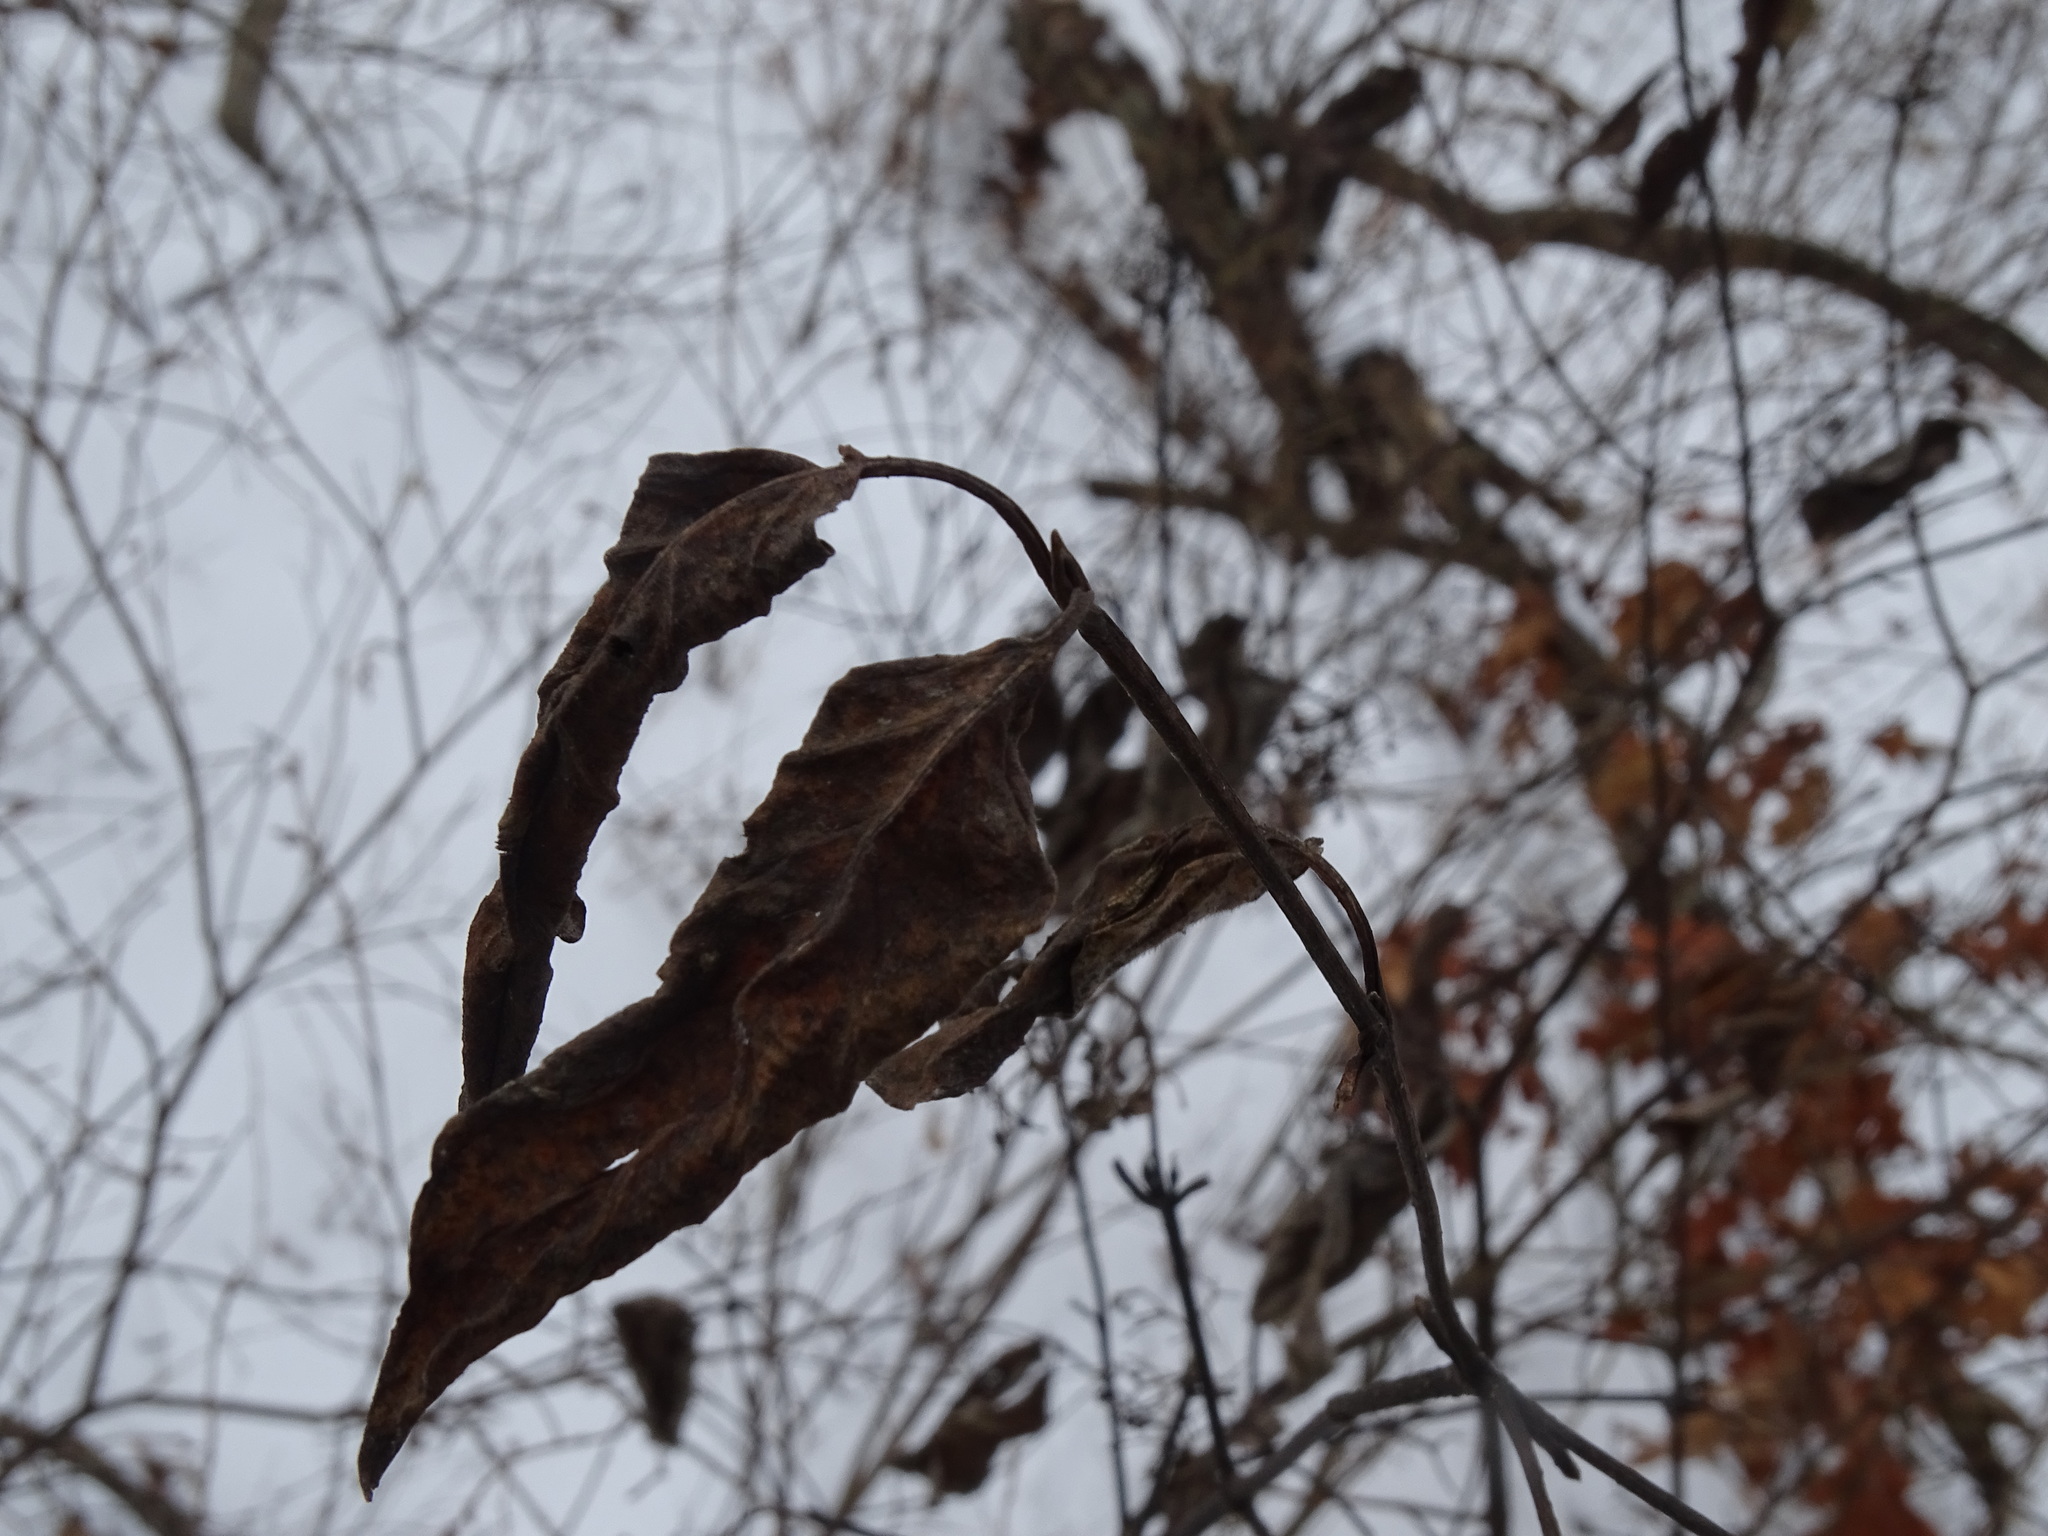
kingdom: Plantae
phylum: Tracheophyta
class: Magnoliopsida
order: Dipsacales
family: Viburnaceae
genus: Viburnum
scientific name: Viburnum lentago
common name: Black haw
